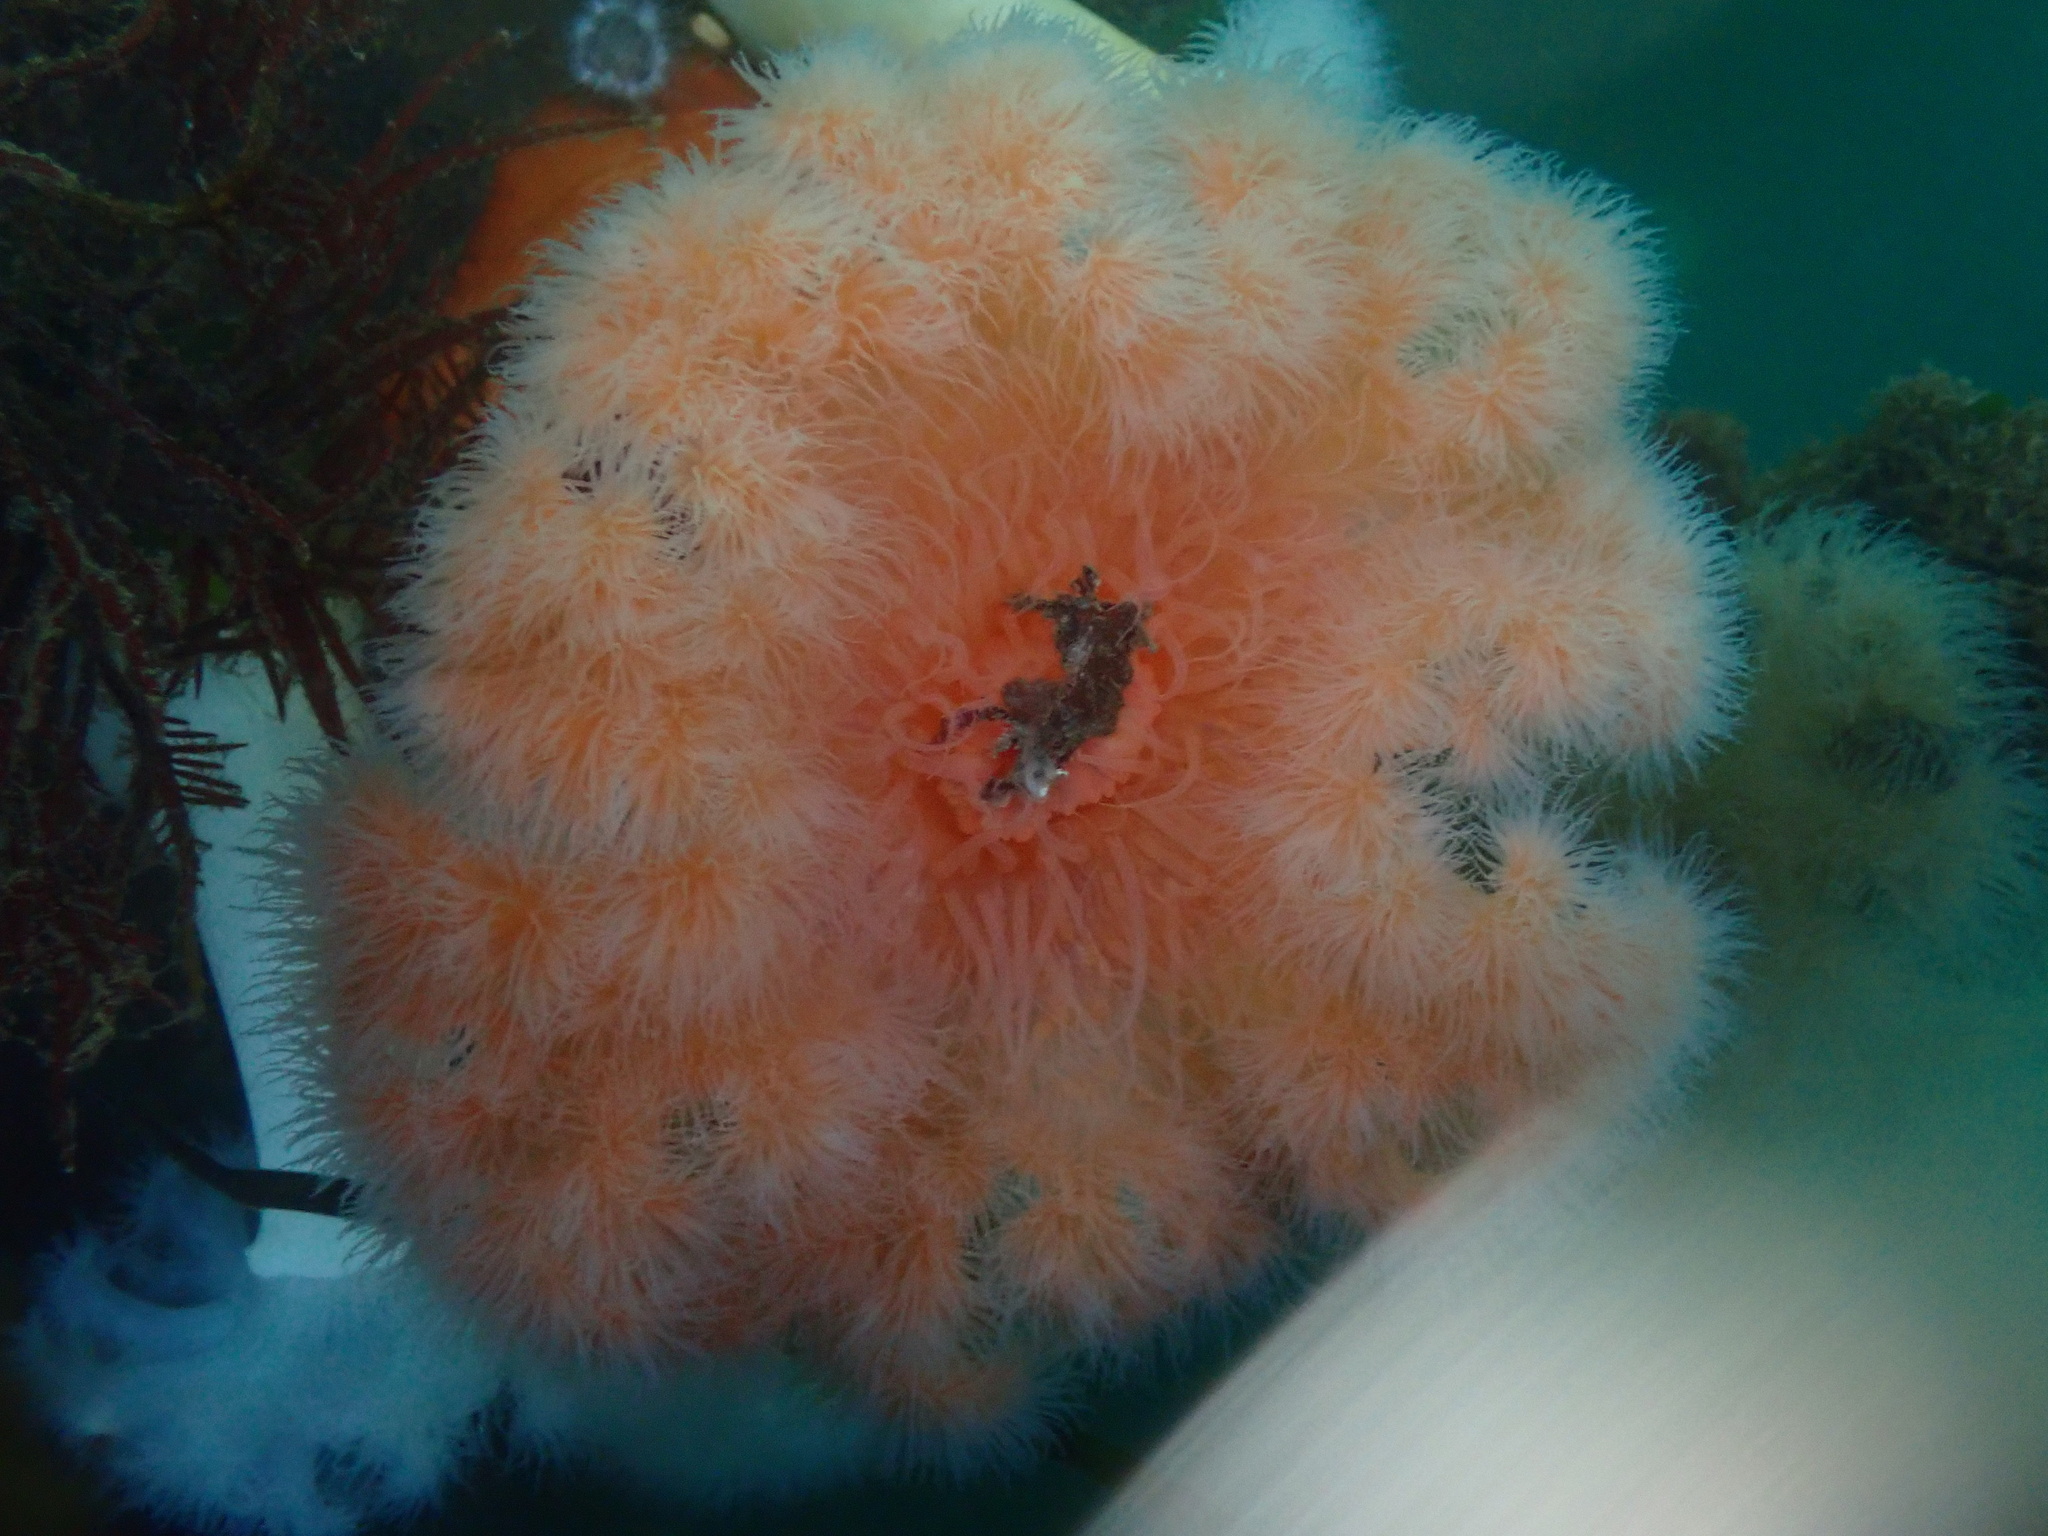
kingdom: Animalia
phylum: Cnidaria
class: Anthozoa
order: Actiniaria
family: Metridiidae
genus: Metridium
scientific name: Metridium farcimen
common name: Gigantic anemone
